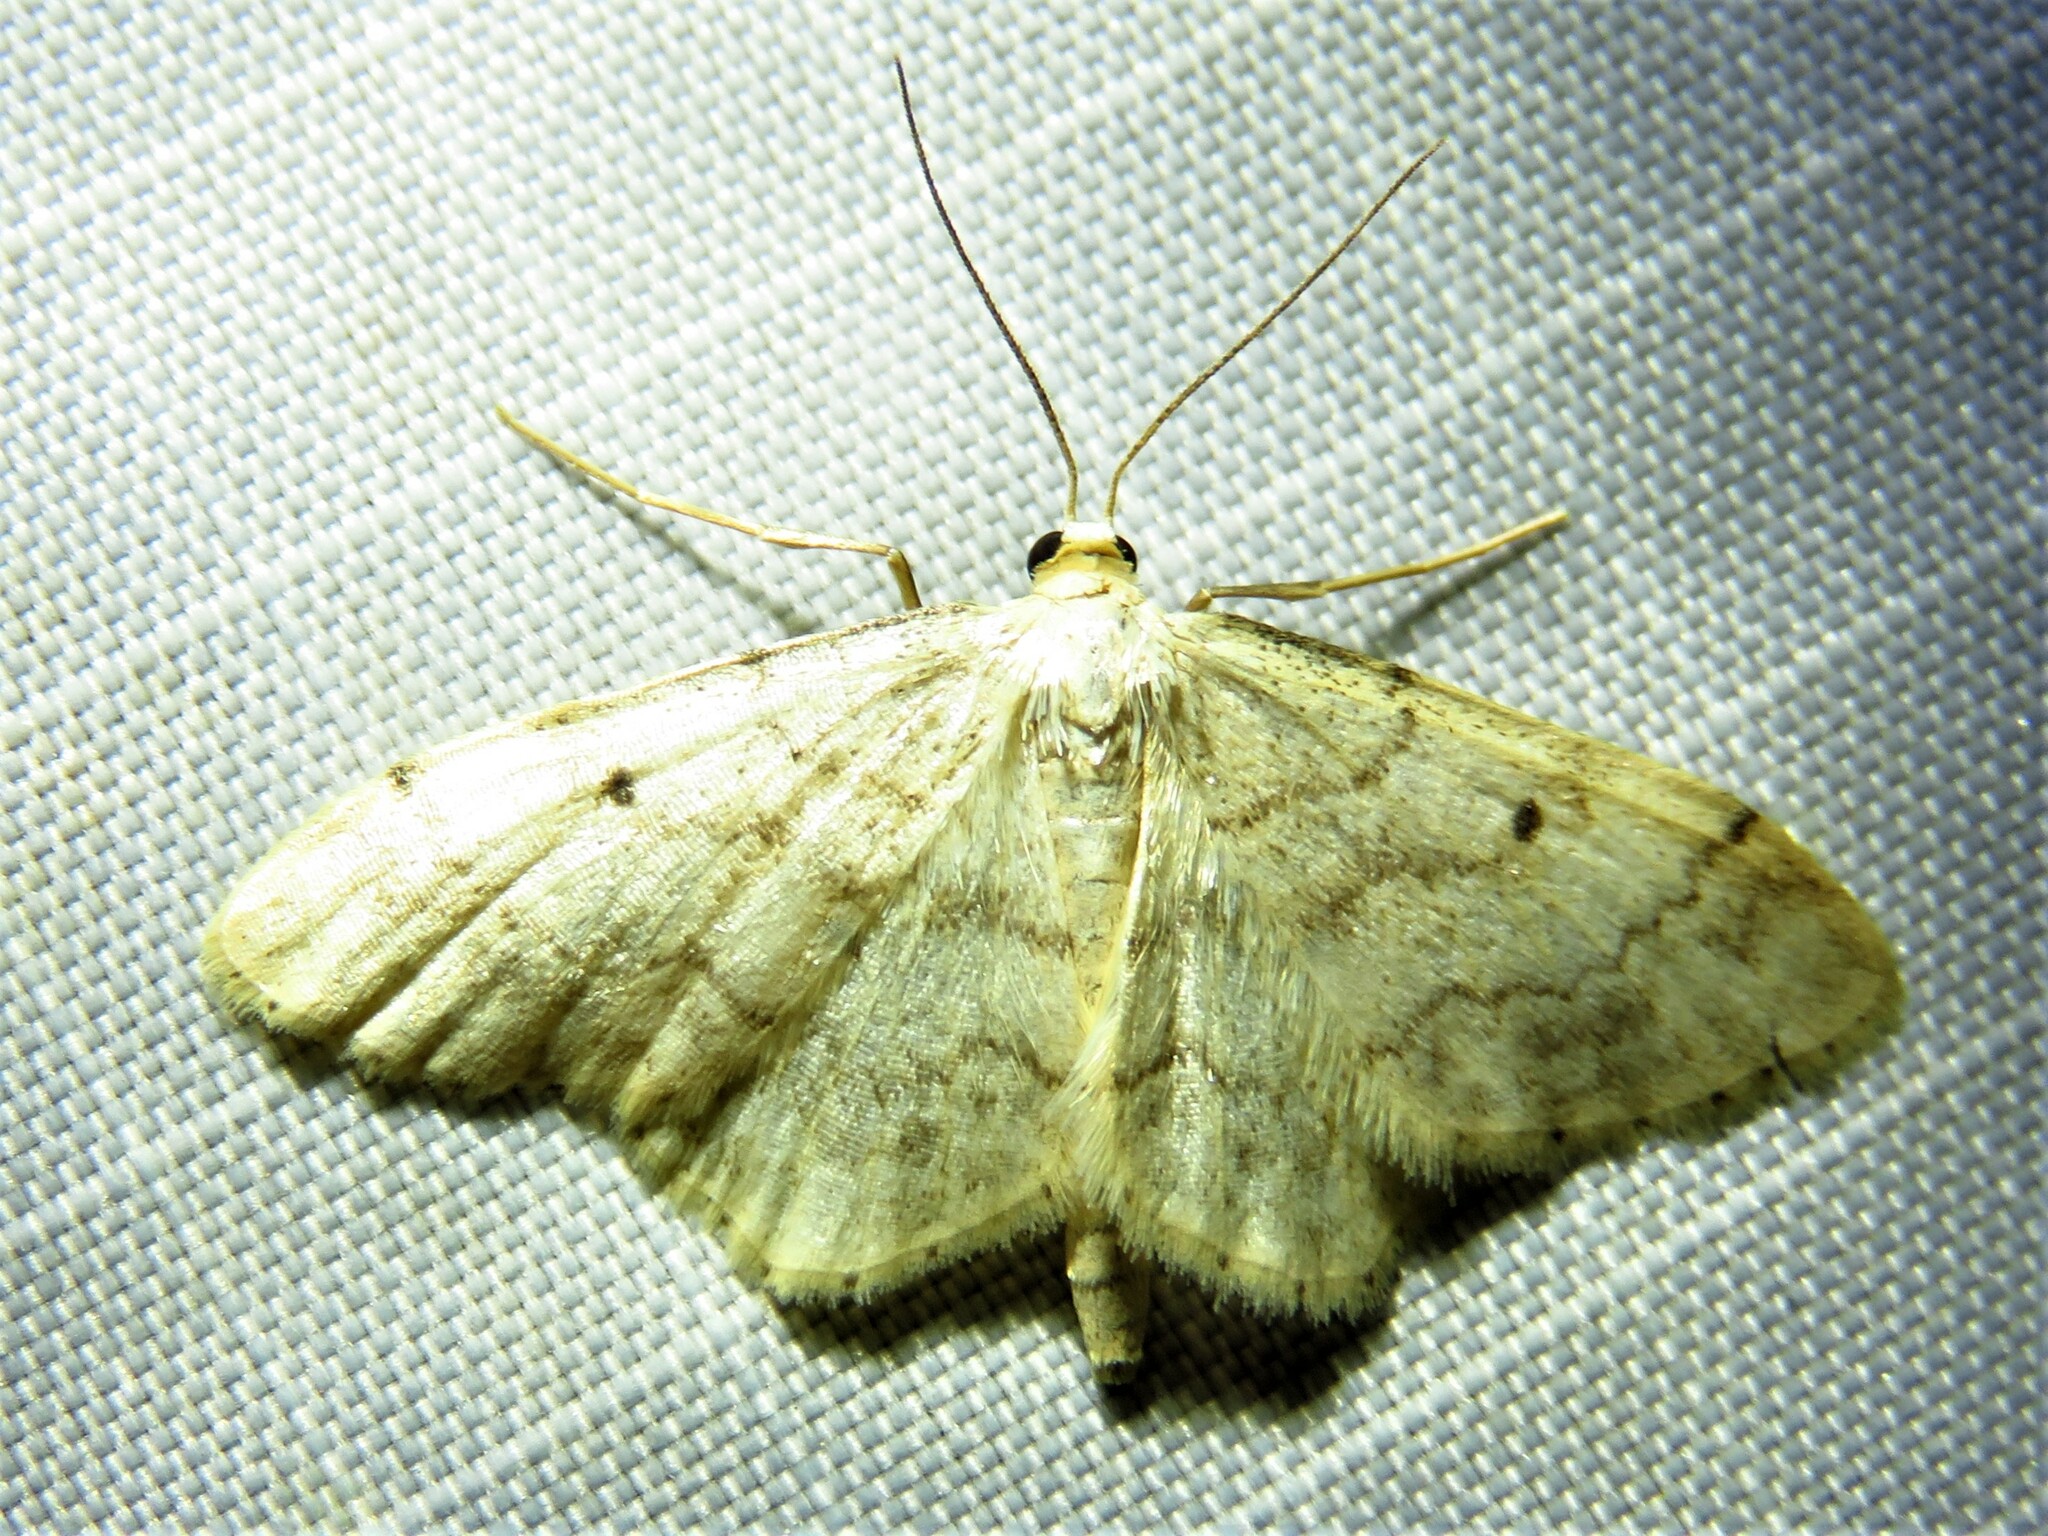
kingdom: Animalia
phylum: Arthropoda
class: Insecta
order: Lepidoptera
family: Geometridae
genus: Idaea
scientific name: Idaea biselata
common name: Small fan-footed wave
